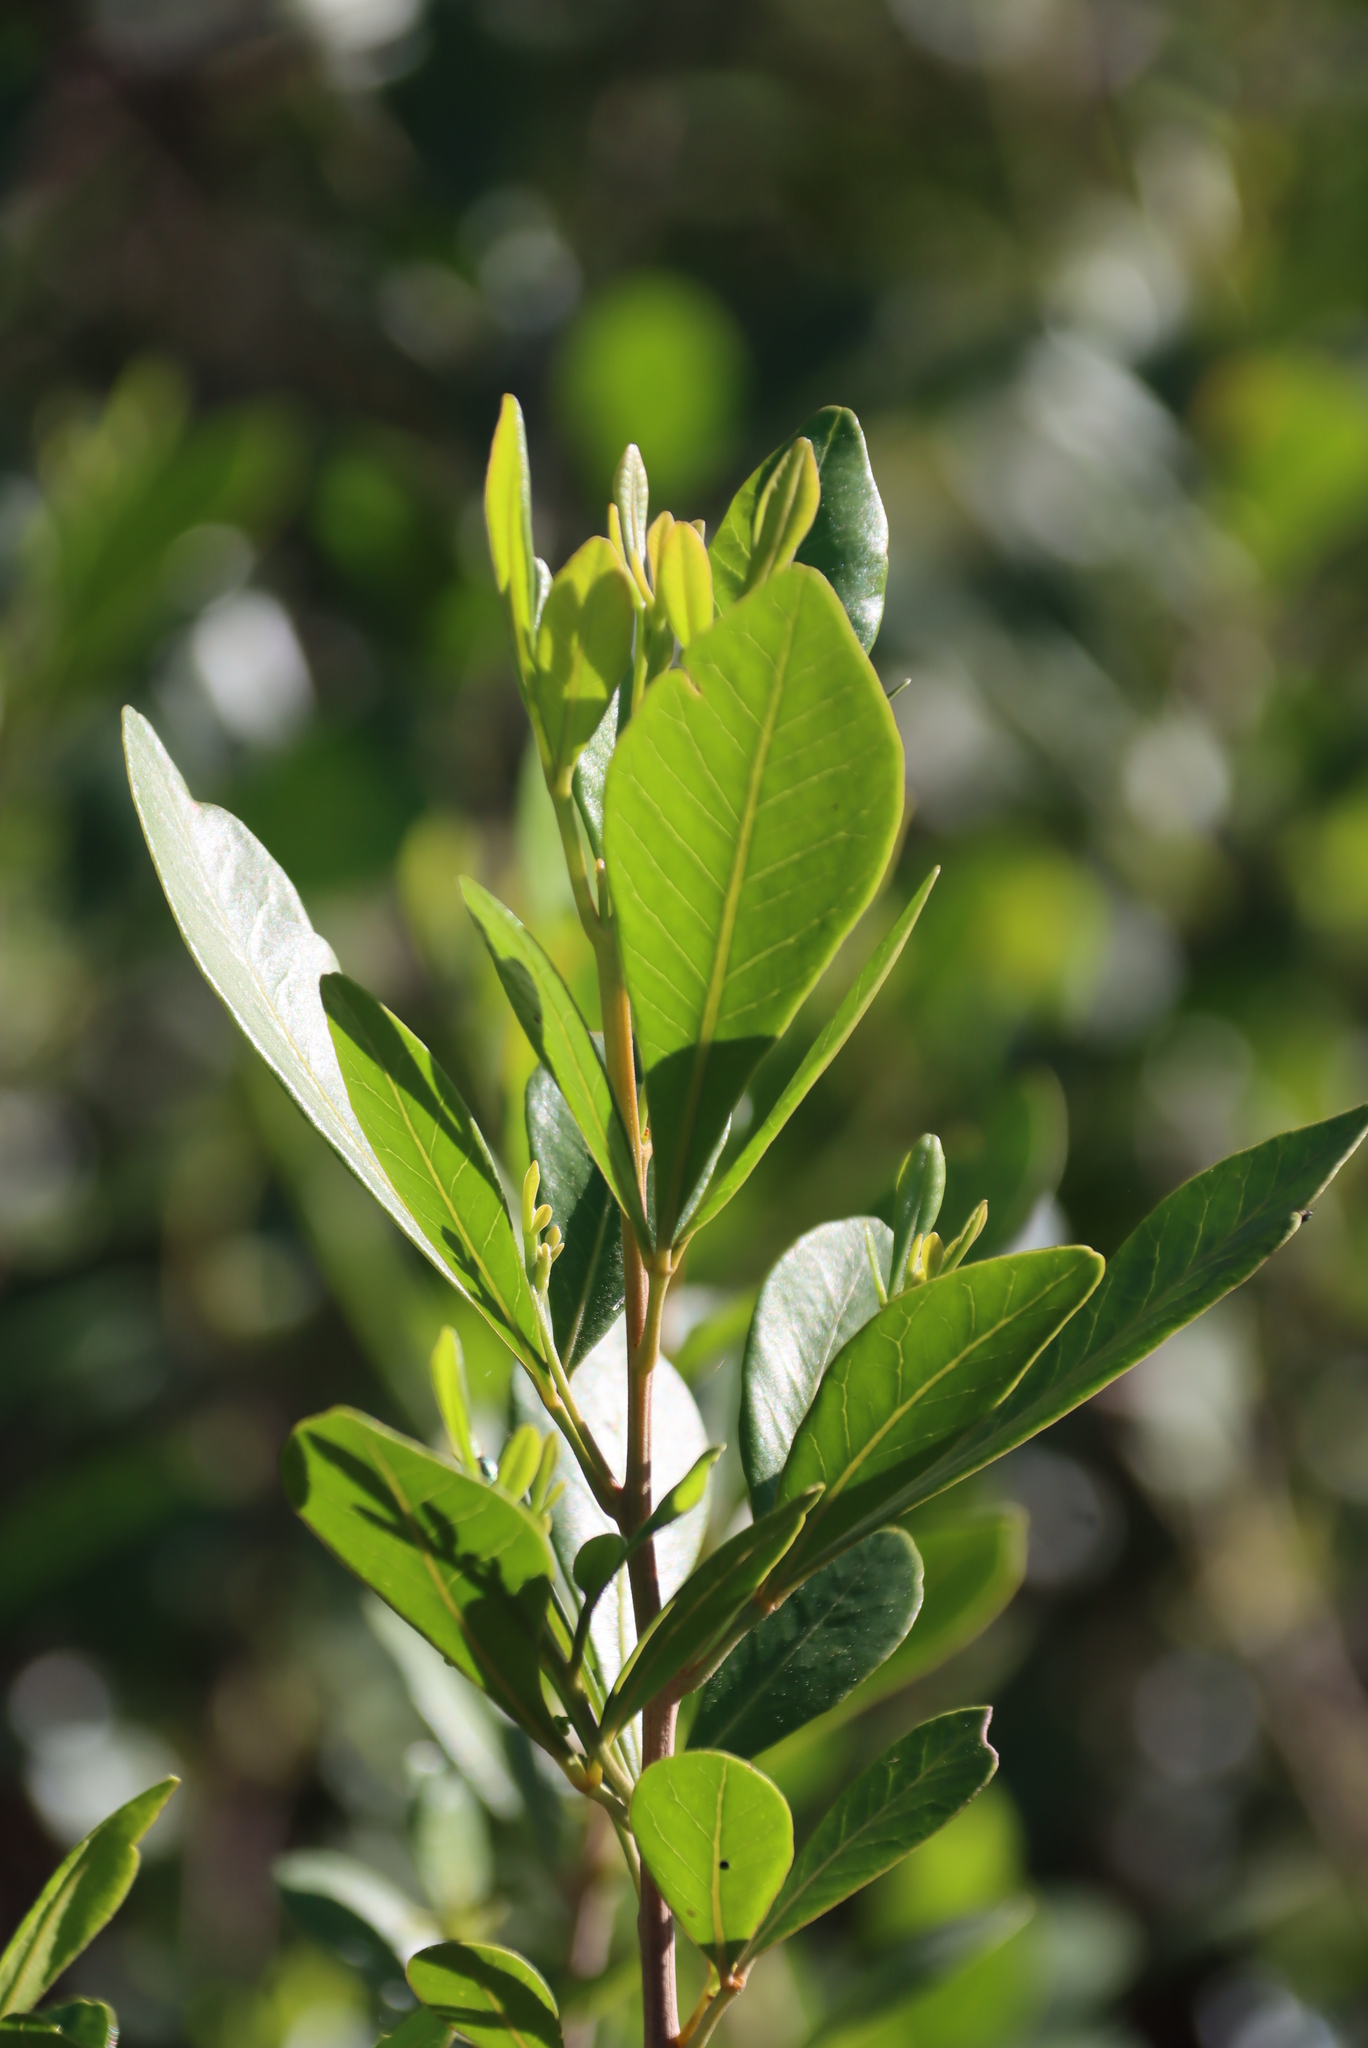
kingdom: Plantae
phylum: Tracheophyta
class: Magnoliopsida
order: Sapindales
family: Anacardiaceae
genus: Searsia
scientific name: Searsia lucida
